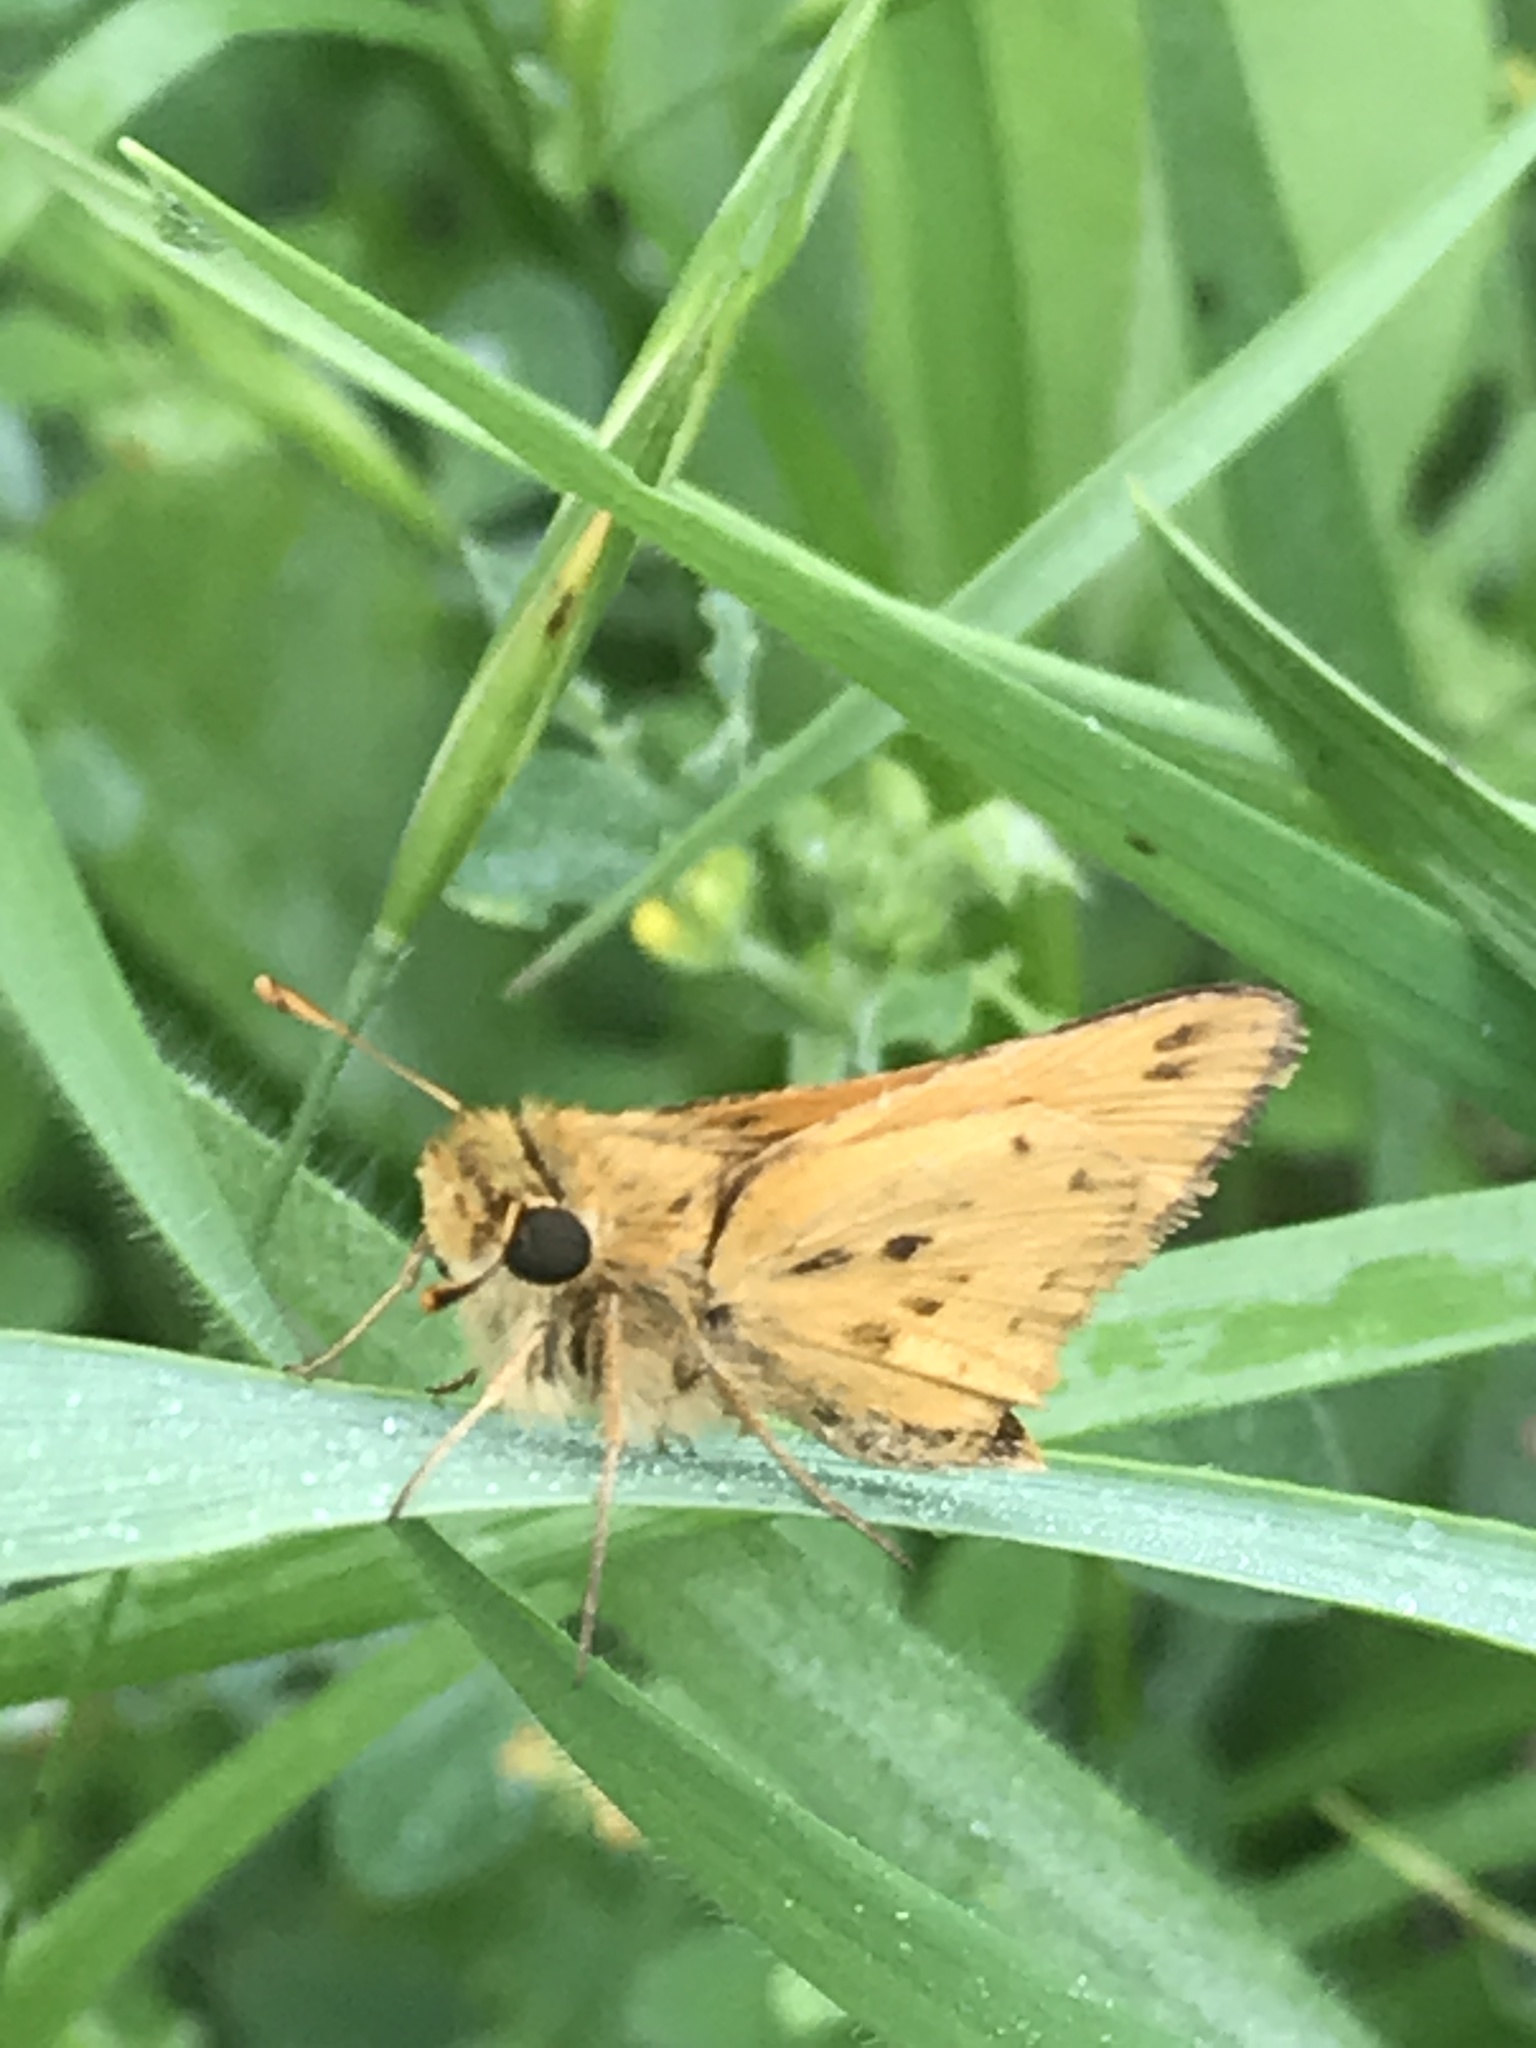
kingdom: Animalia
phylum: Arthropoda
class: Insecta
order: Lepidoptera
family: Hesperiidae
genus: Hylephila
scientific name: Hylephila phyleus
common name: Fiery skipper
